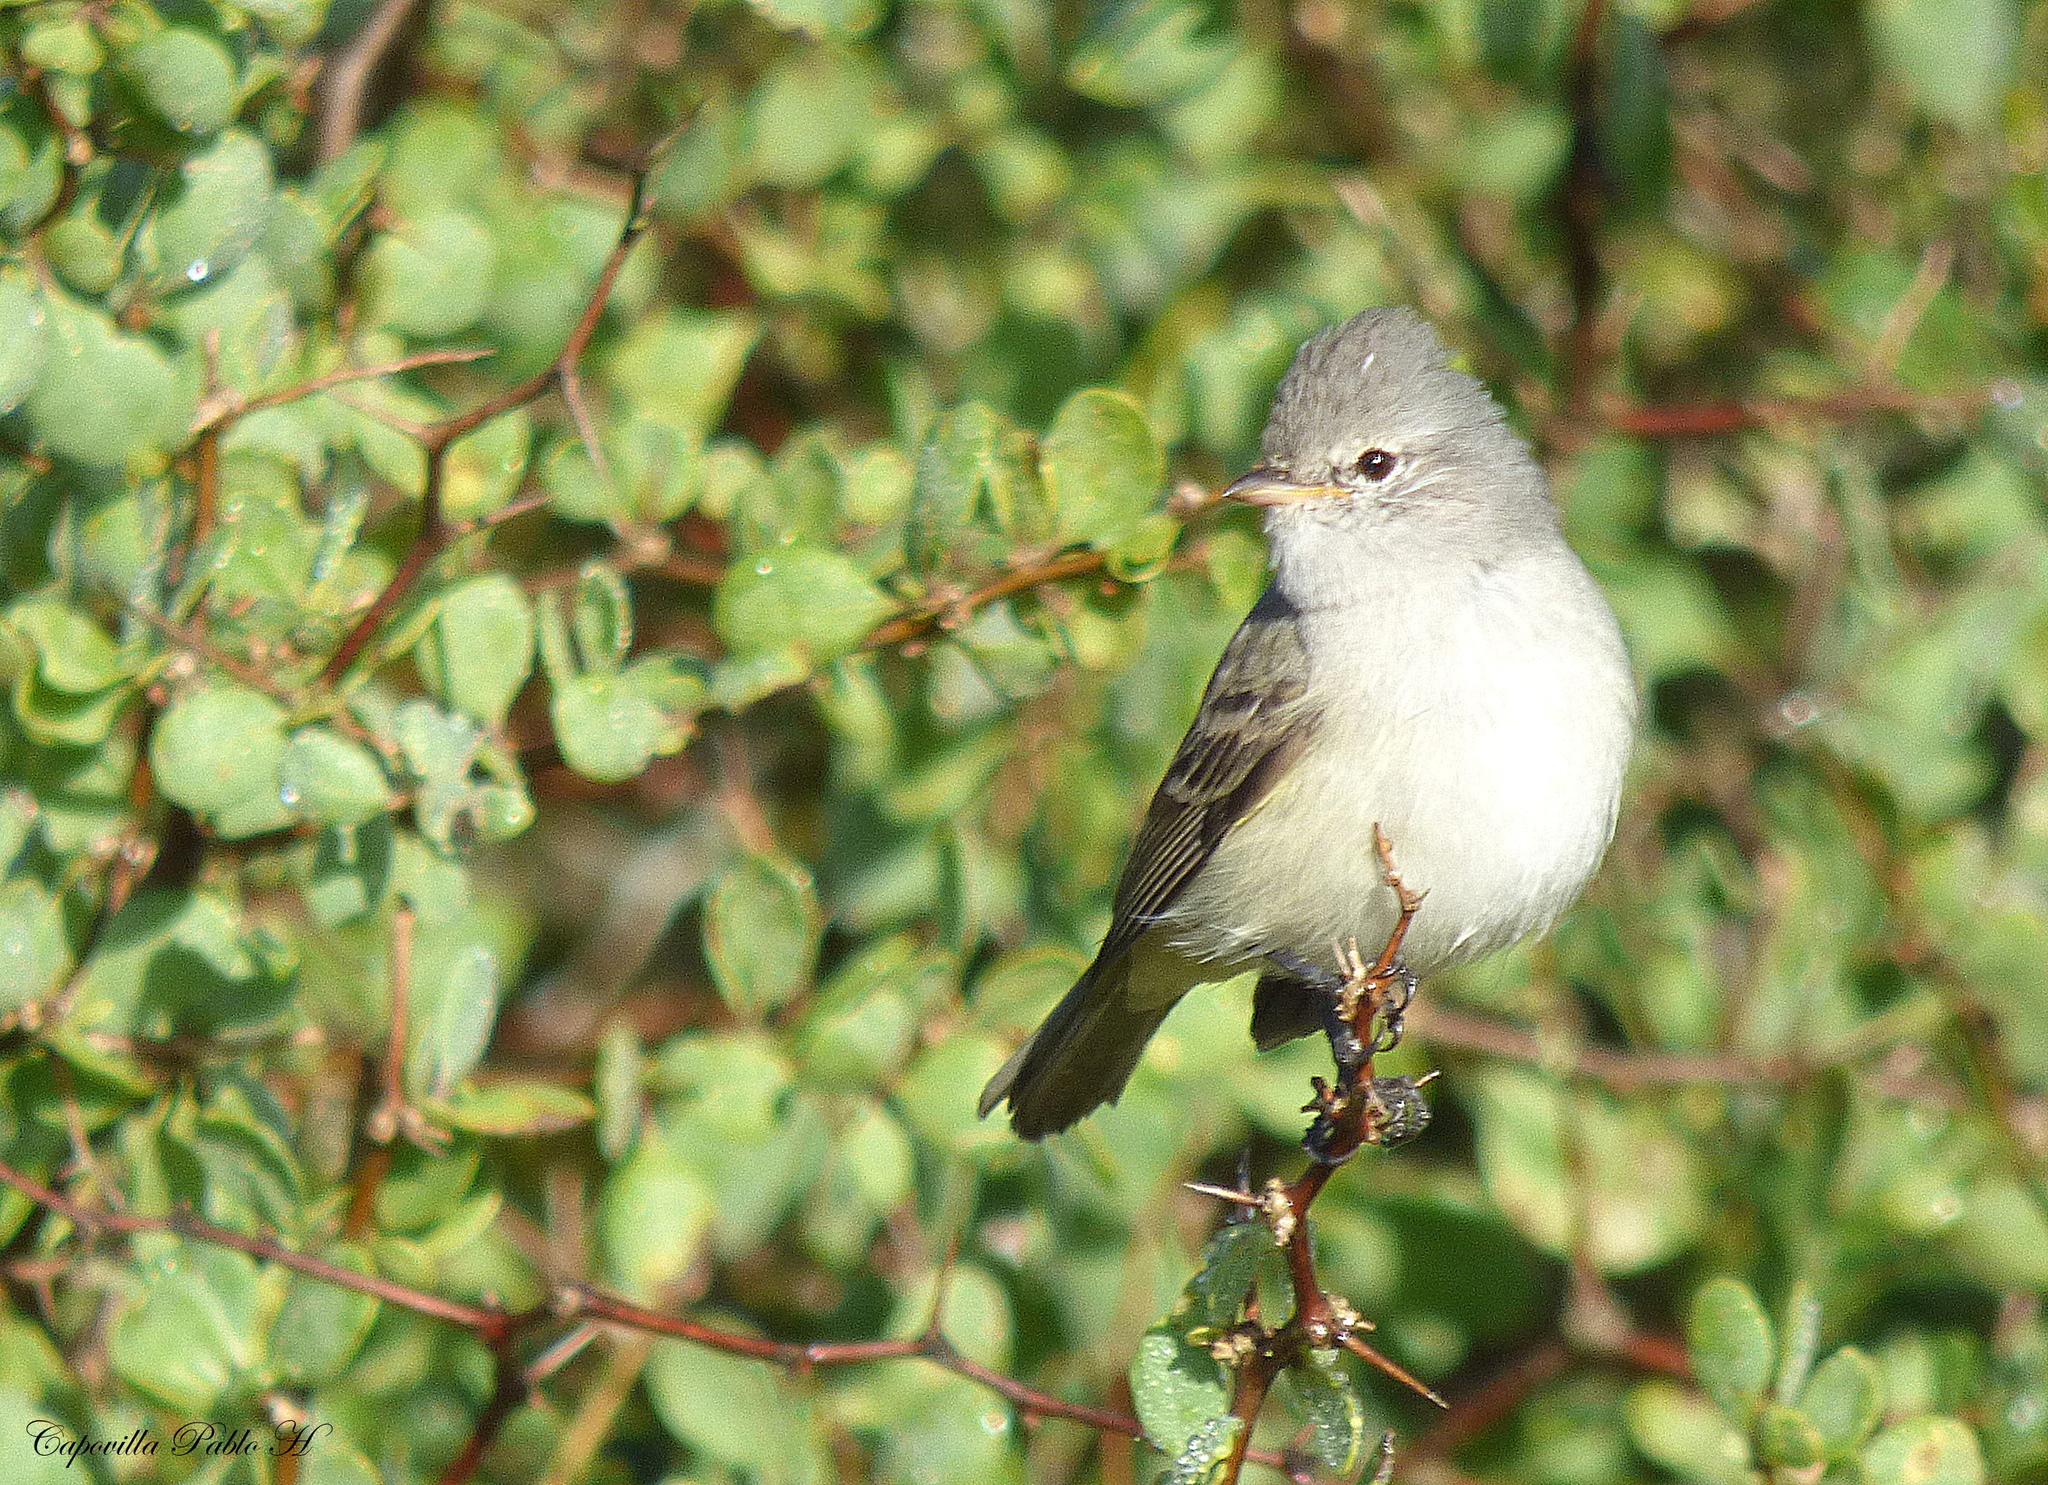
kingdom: Animalia
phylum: Chordata
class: Aves
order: Passeriformes
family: Tyrannidae
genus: Camptostoma
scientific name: Camptostoma obsoletum
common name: Southern beardless-tyrannulet
